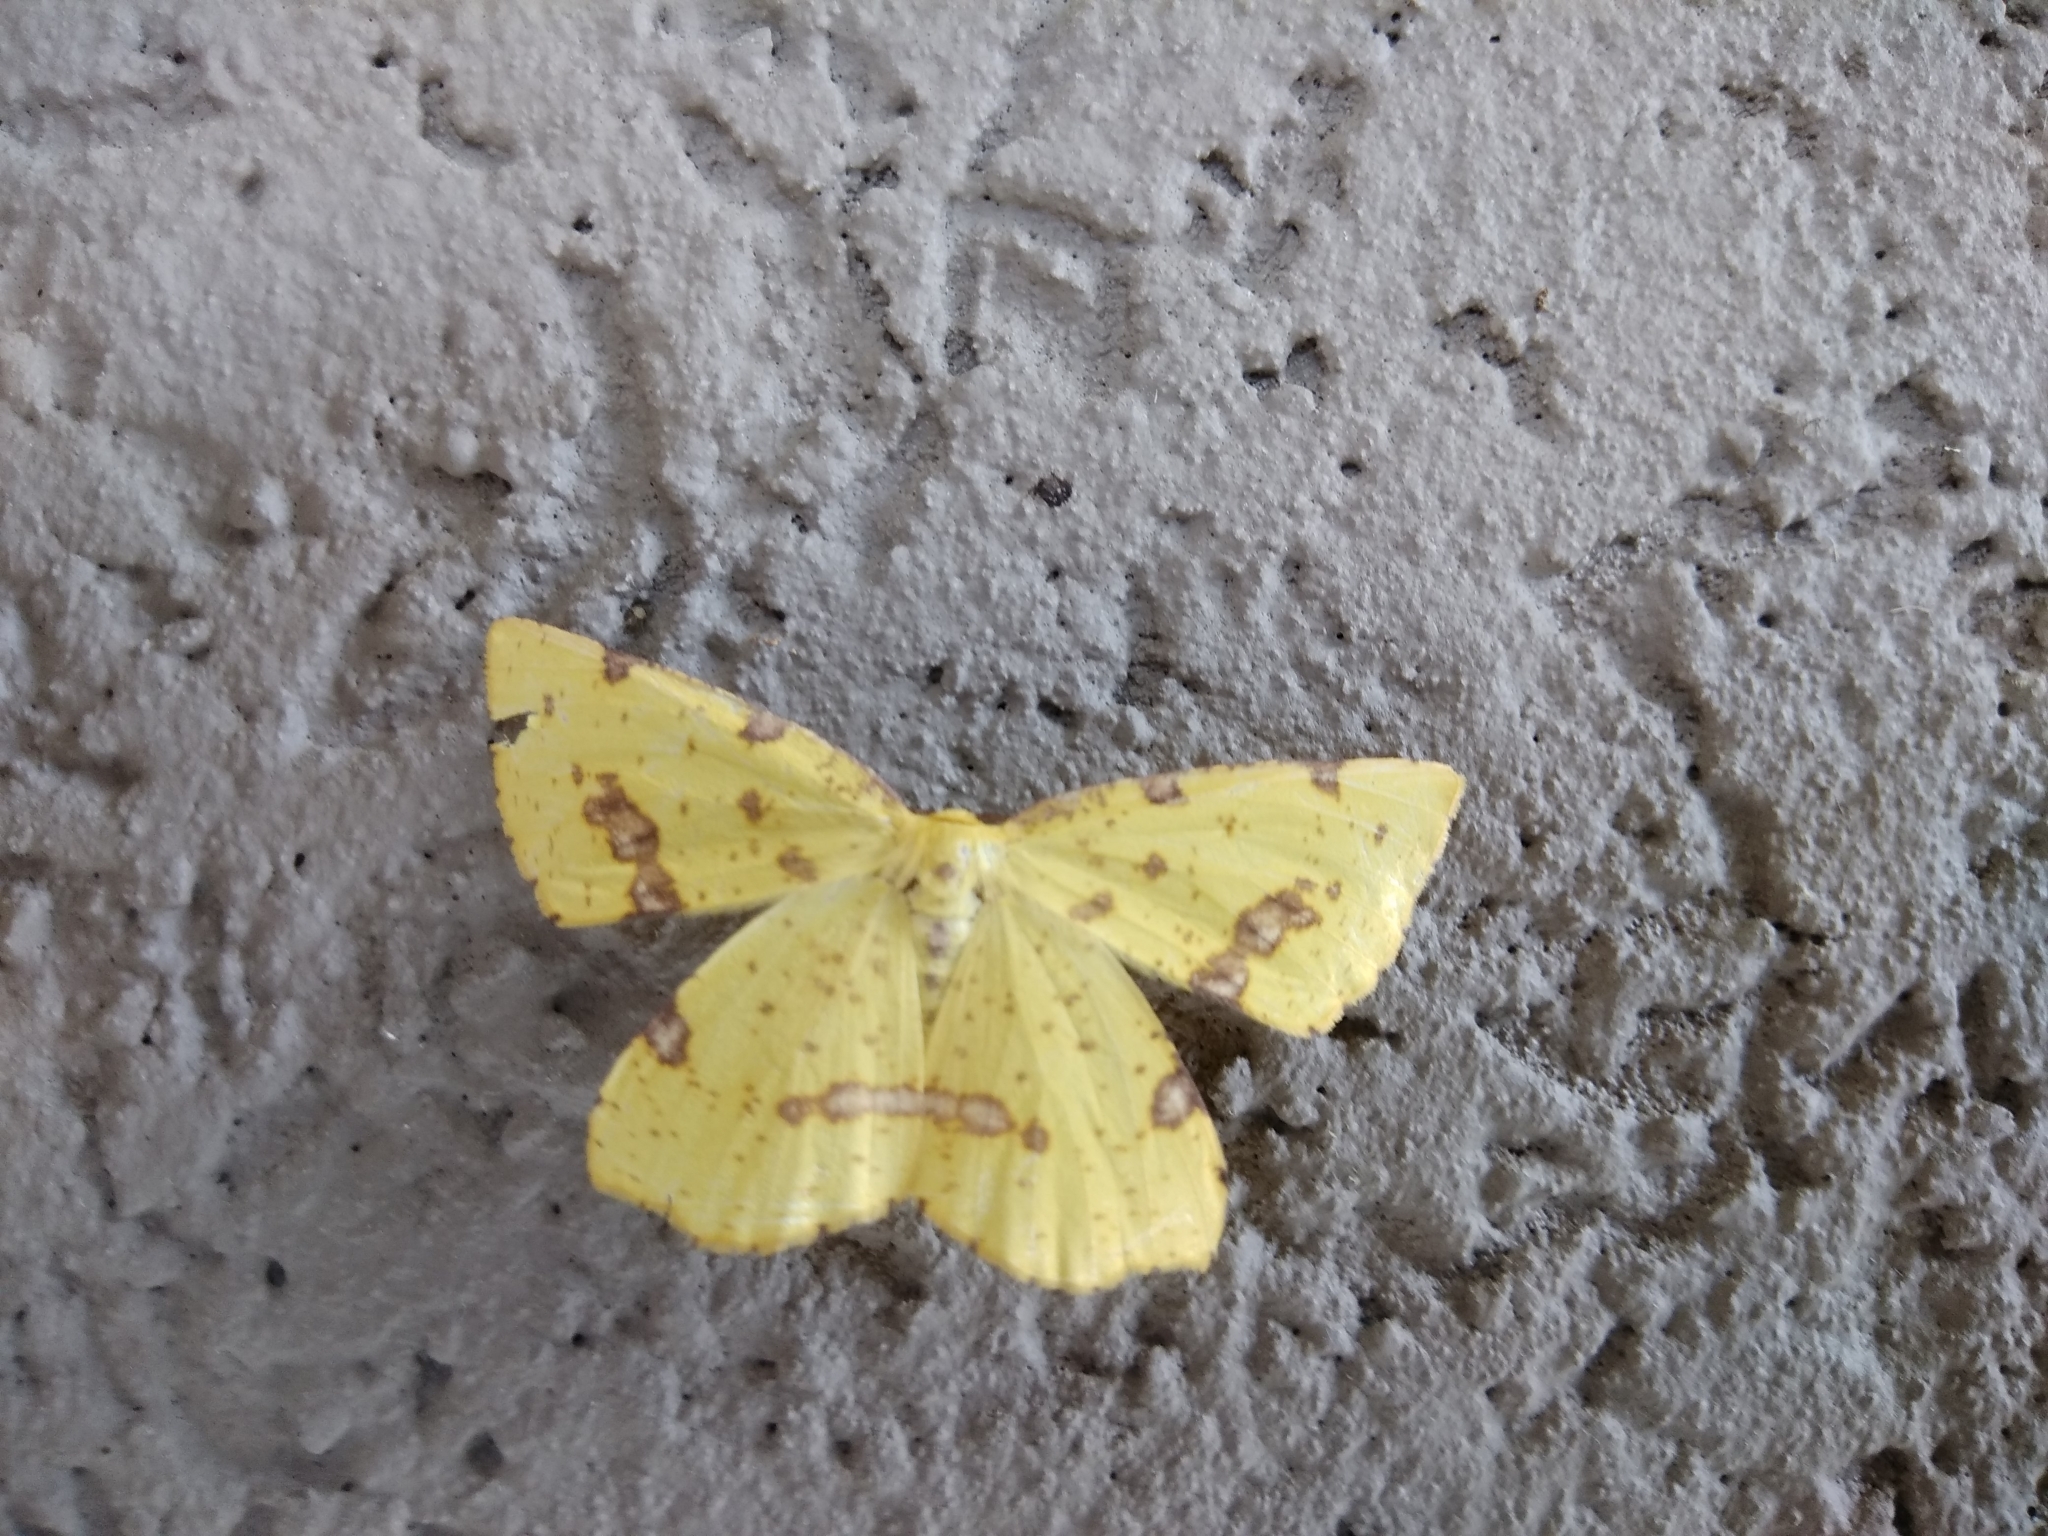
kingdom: Animalia
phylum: Arthropoda
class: Insecta
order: Lepidoptera
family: Geometridae
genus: Xanthotype
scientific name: Xanthotype
